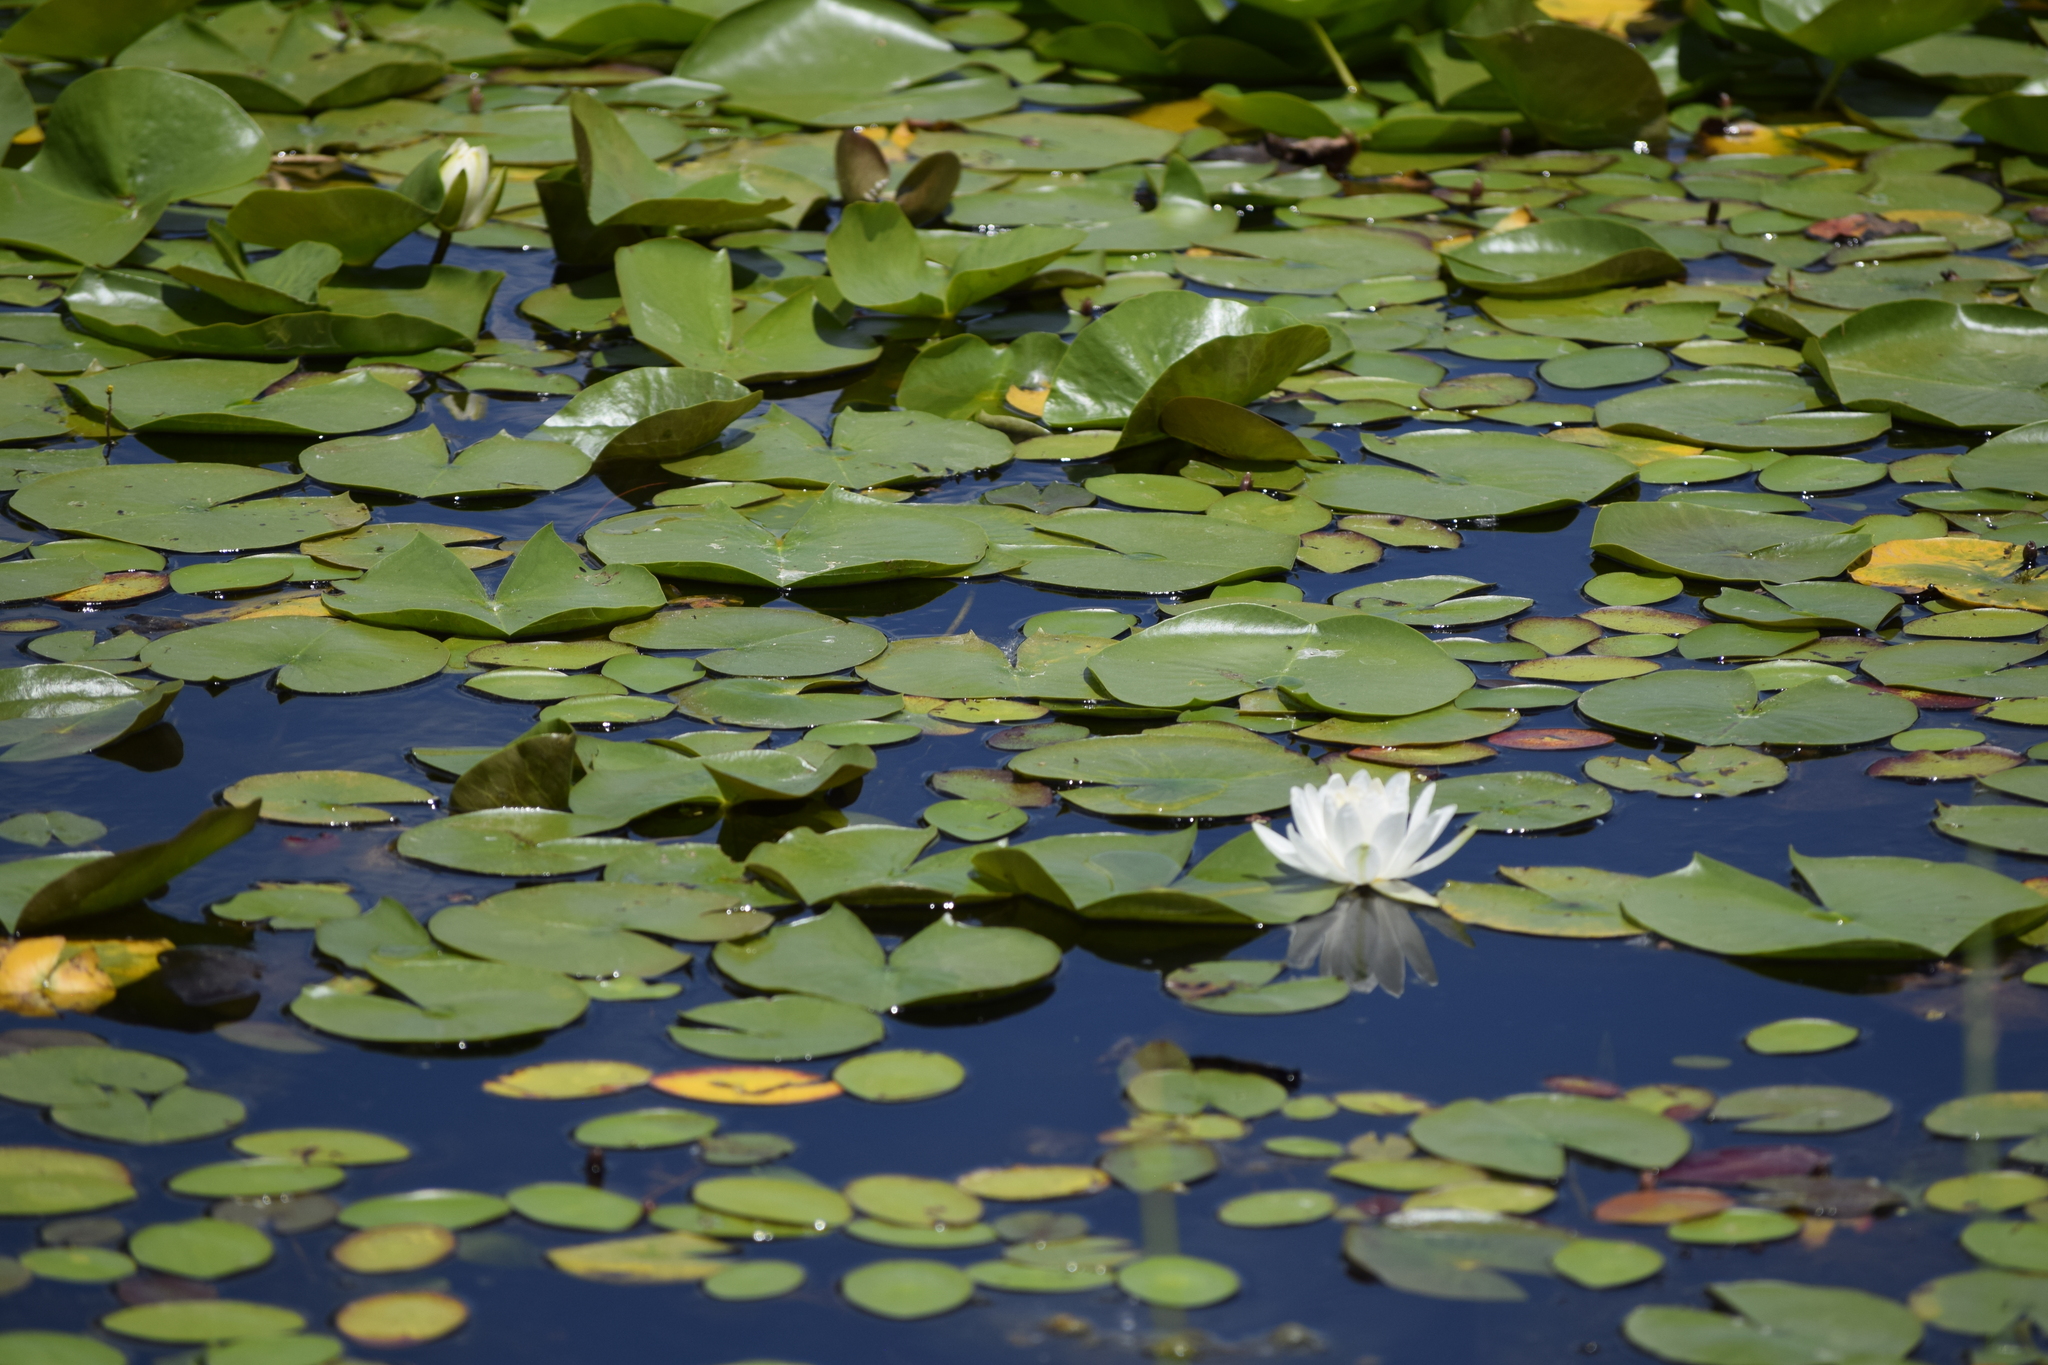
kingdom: Plantae
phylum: Tracheophyta
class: Magnoliopsida
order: Nymphaeales
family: Nymphaeaceae
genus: Nymphaea
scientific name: Nymphaea odorata
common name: Fragrant water-lily
